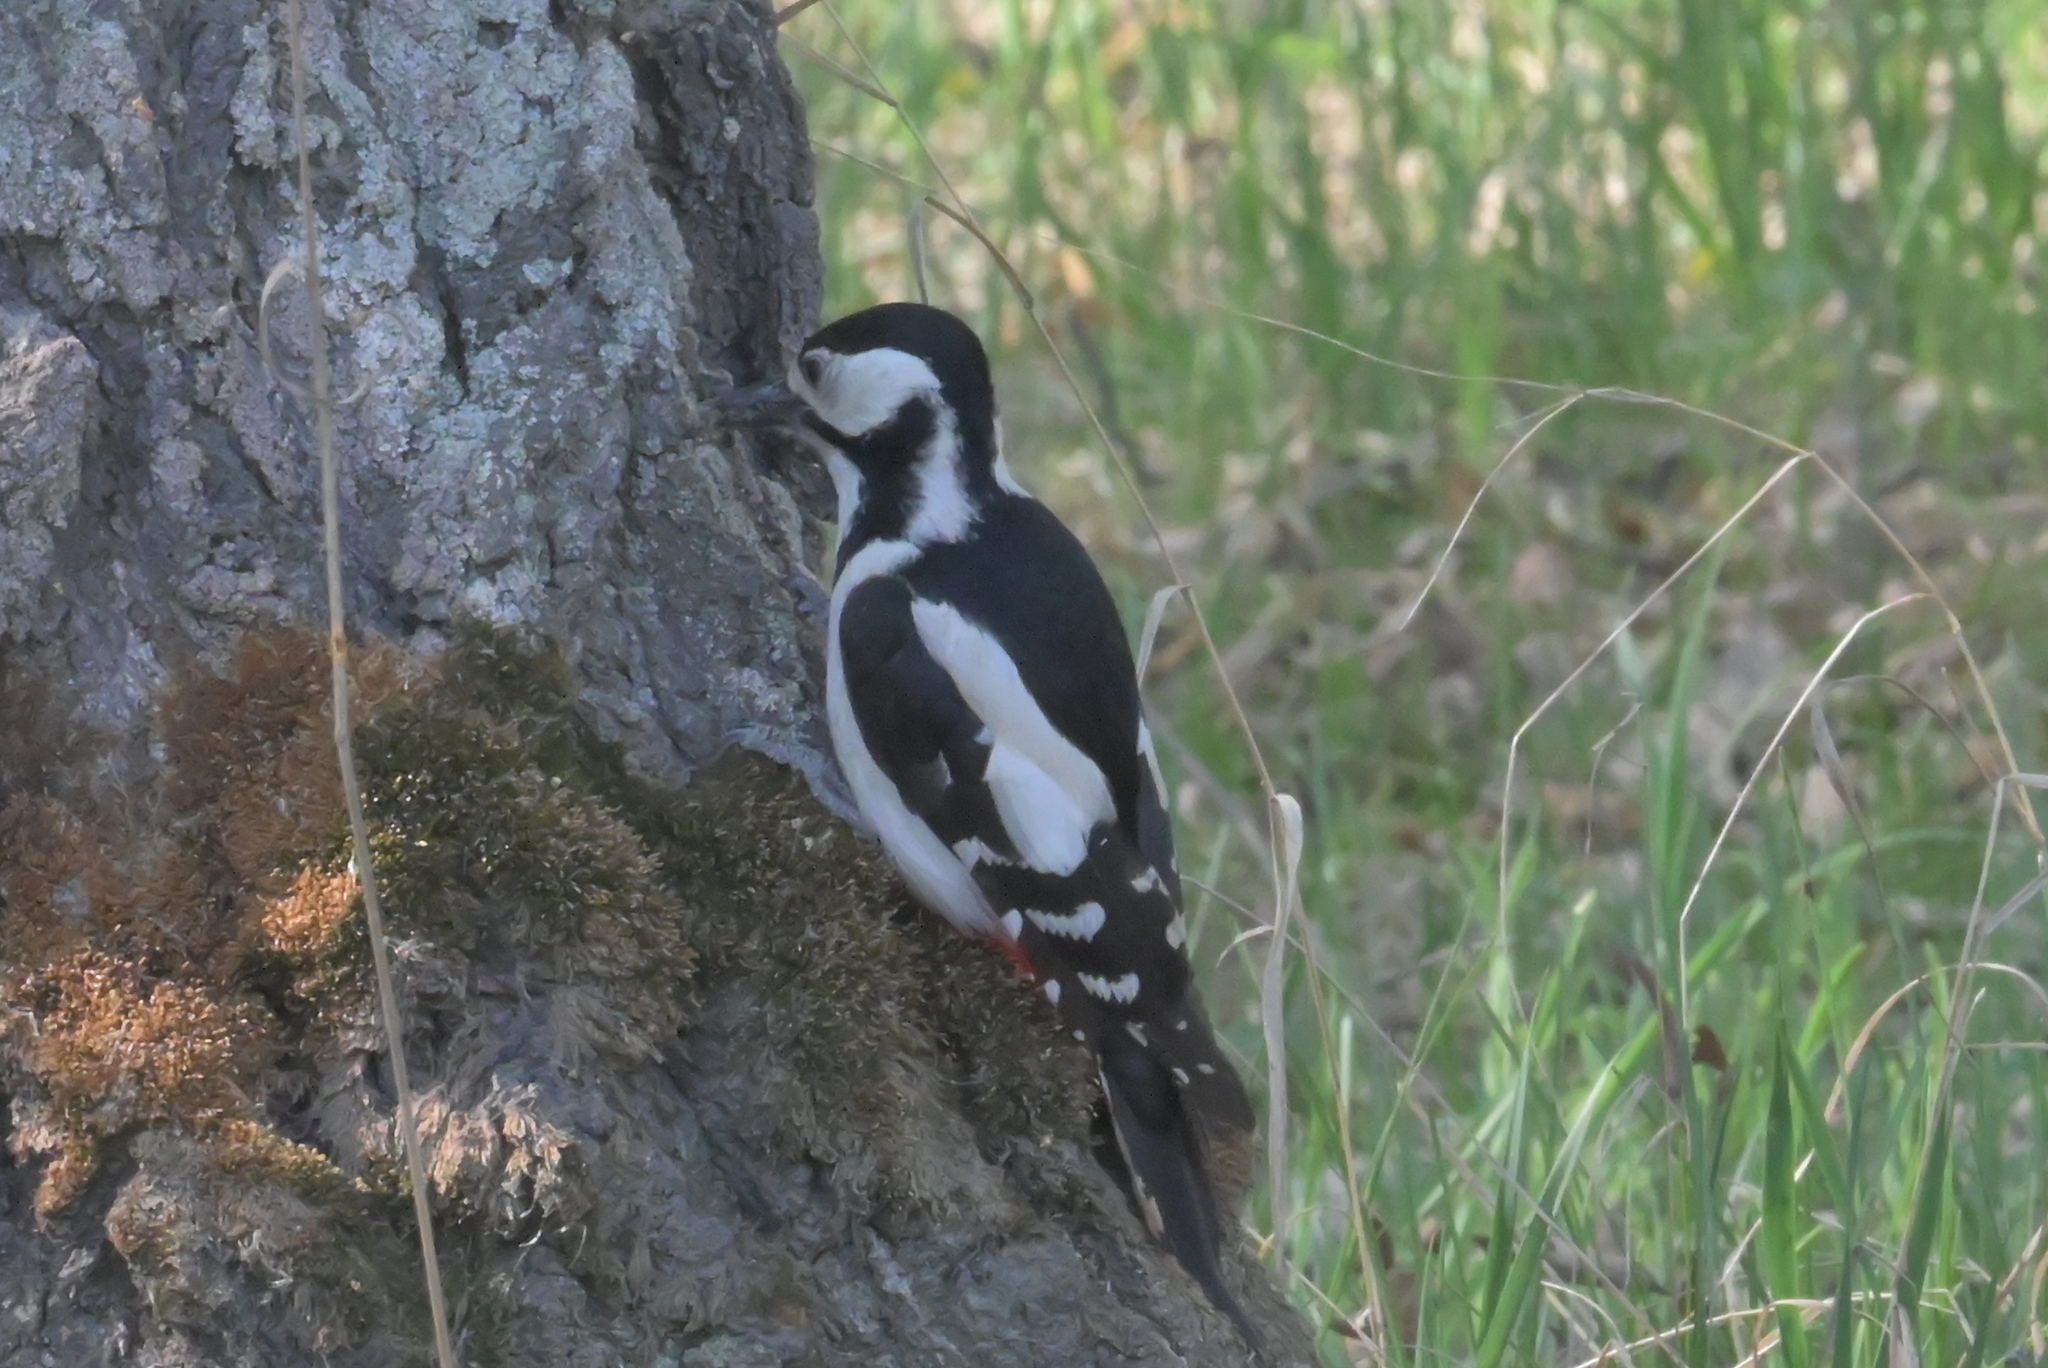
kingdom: Animalia
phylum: Chordata
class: Aves
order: Piciformes
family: Picidae
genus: Dendrocopos
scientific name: Dendrocopos major
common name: Great spotted woodpecker
